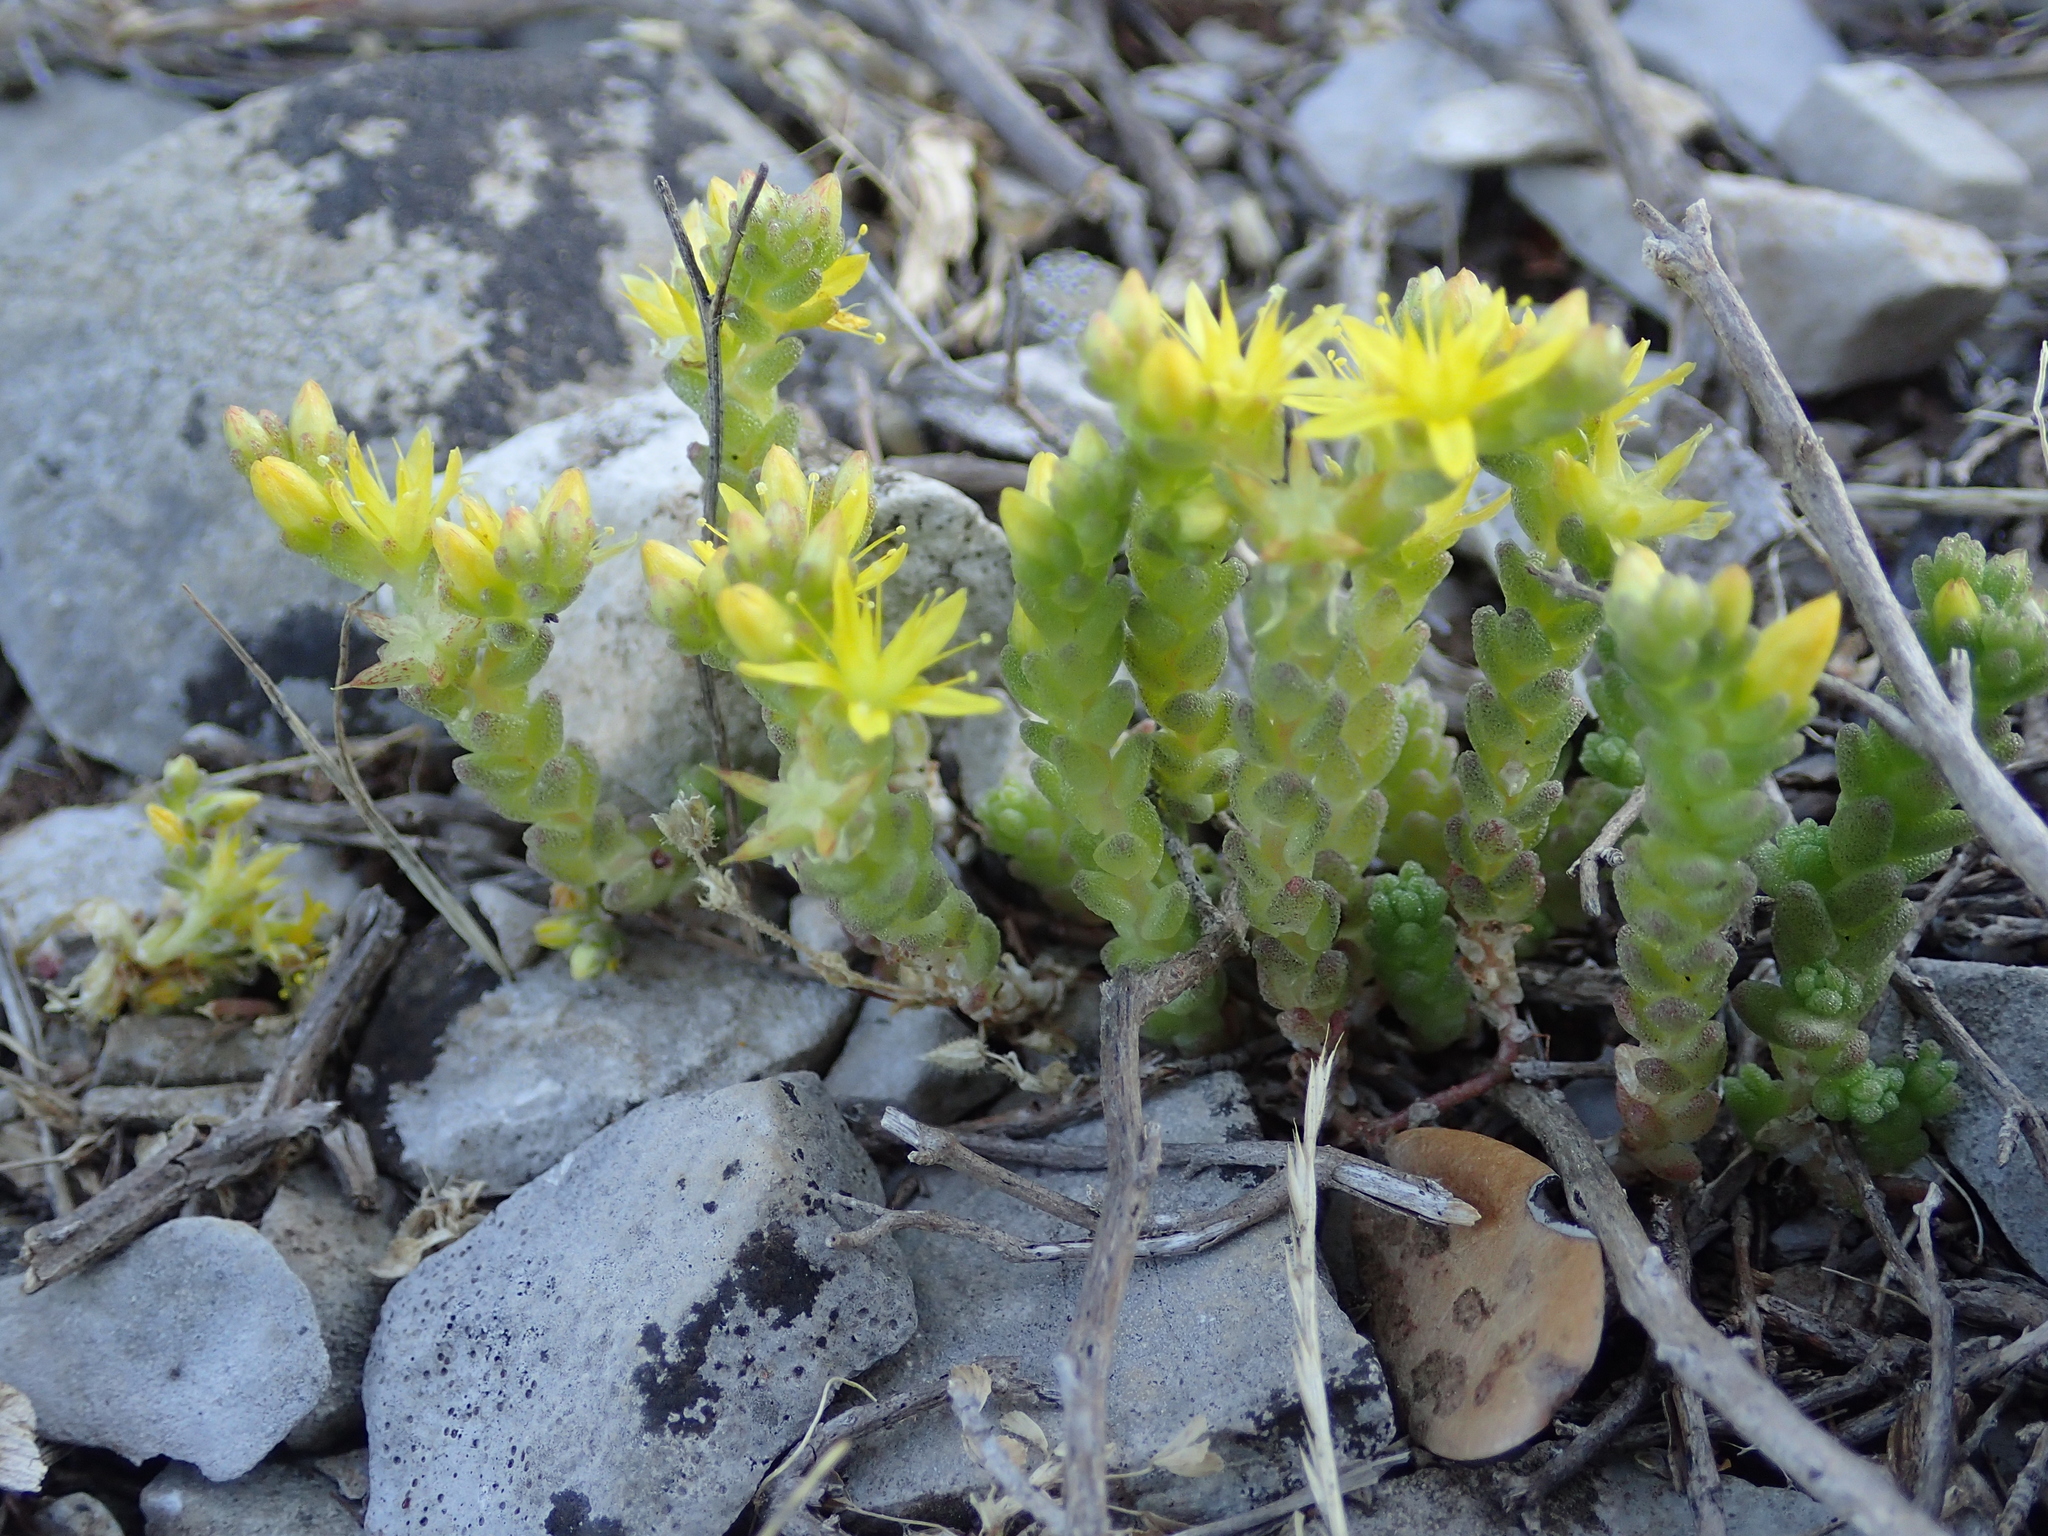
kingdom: Plantae
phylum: Tracheophyta
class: Magnoliopsida
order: Saxifragales
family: Crassulaceae
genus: Sedum
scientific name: Sedum acre
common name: Biting stonecrop
